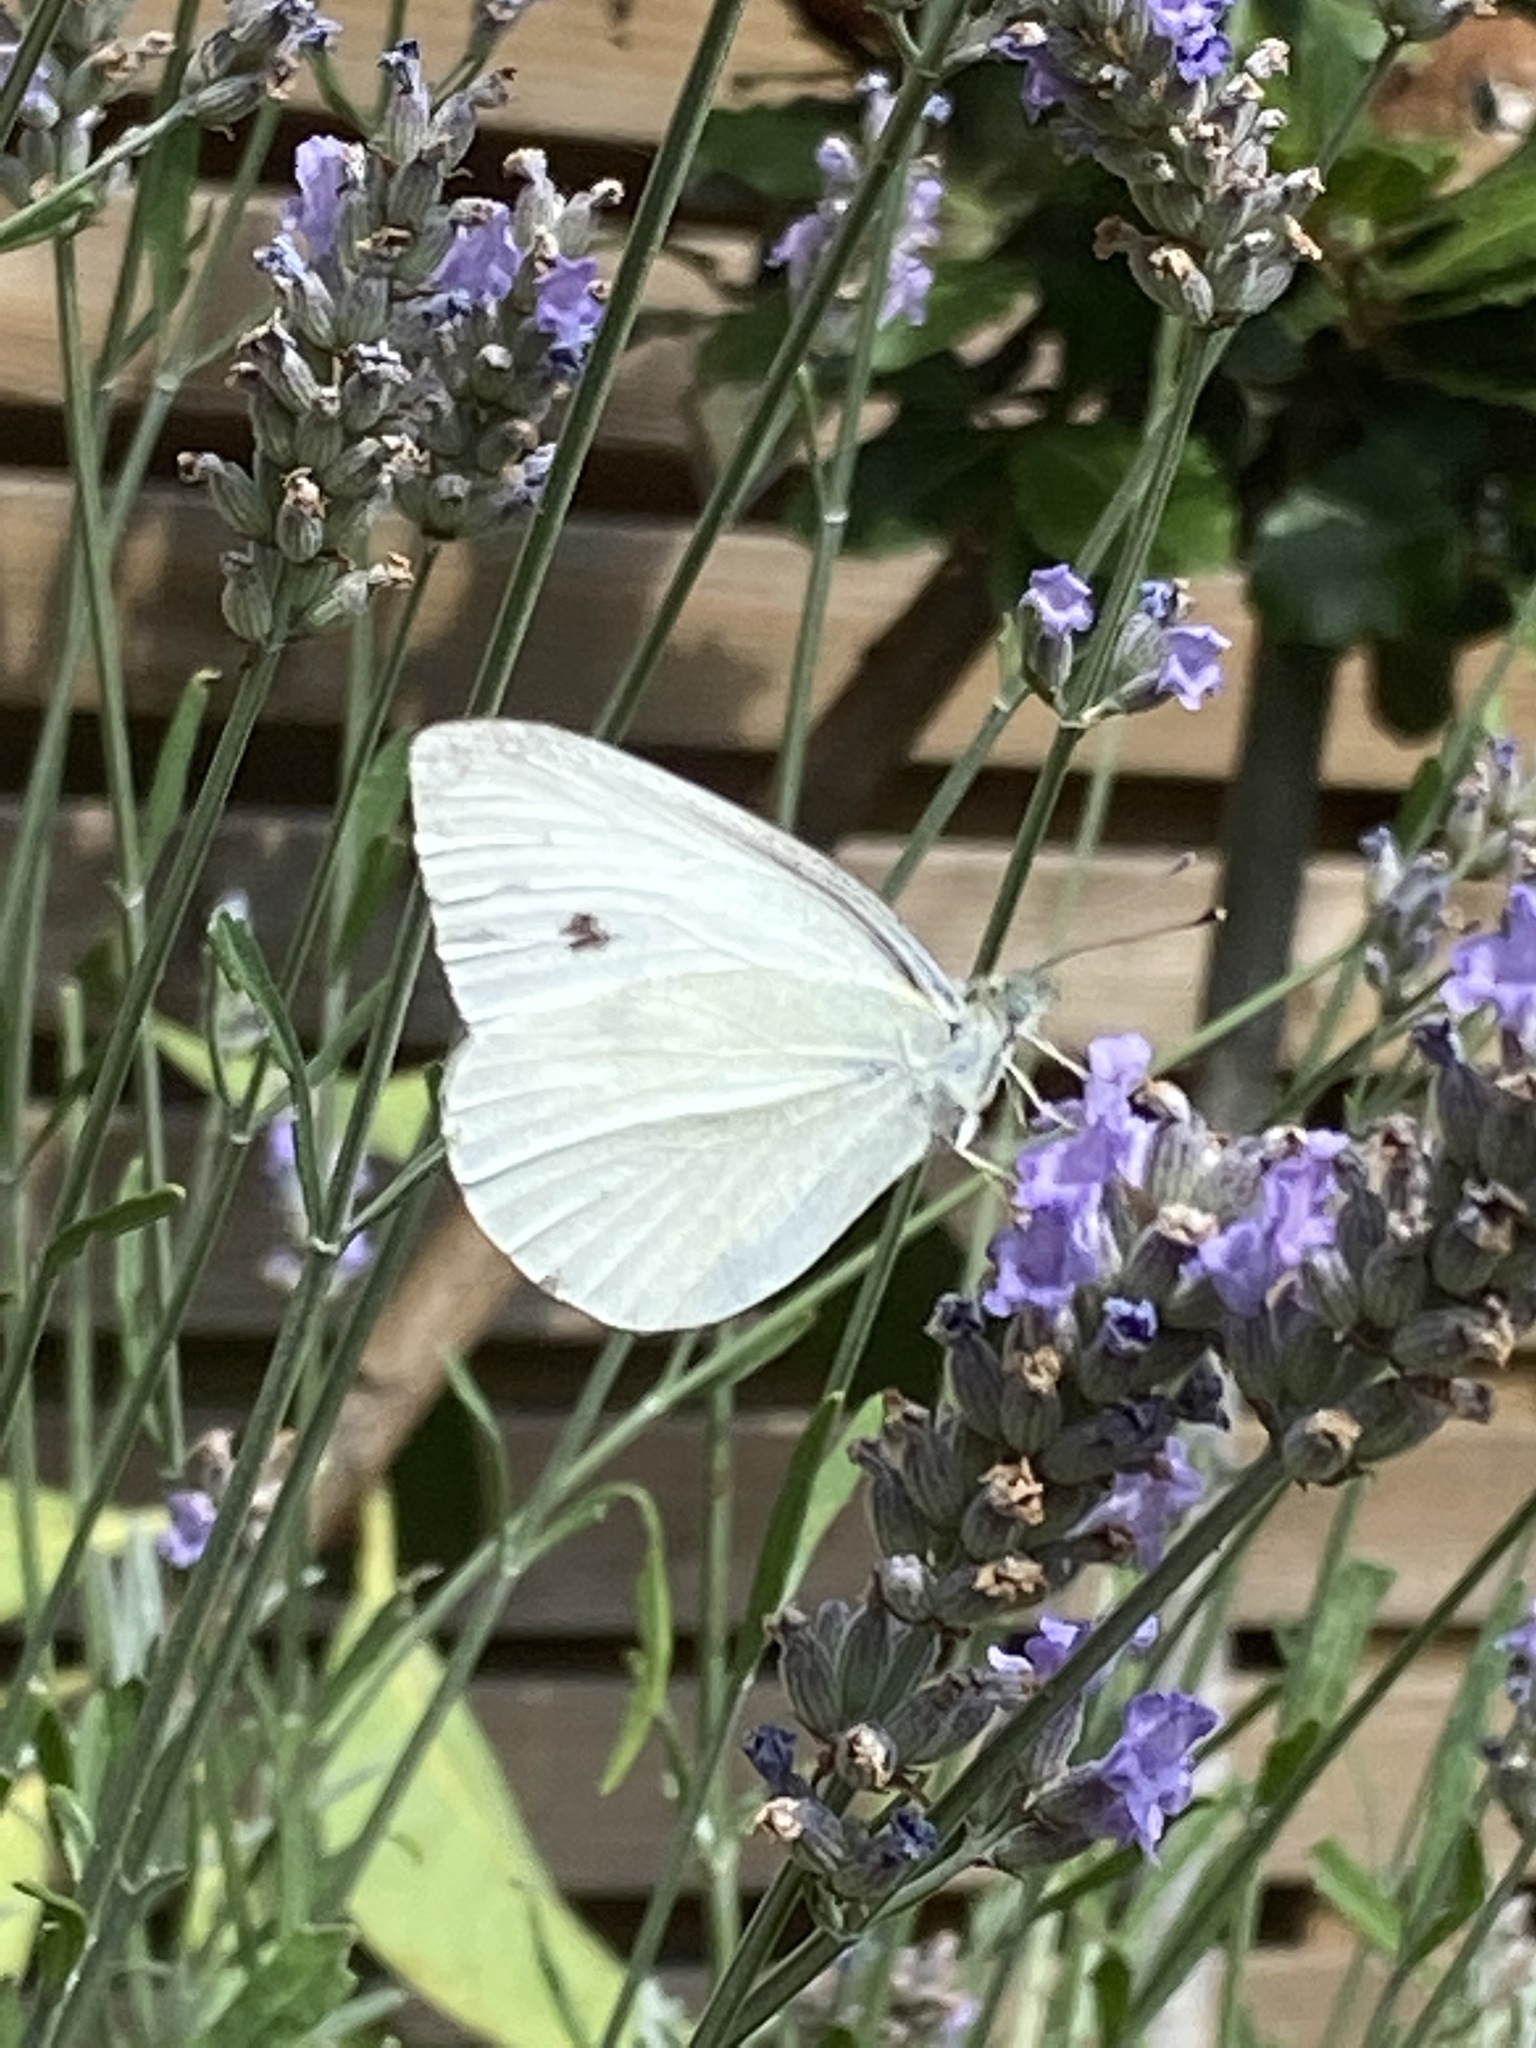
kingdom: Animalia
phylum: Arthropoda
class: Insecta
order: Lepidoptera
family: Pieridae
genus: Pieris
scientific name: Pieris rapae
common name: Small white
